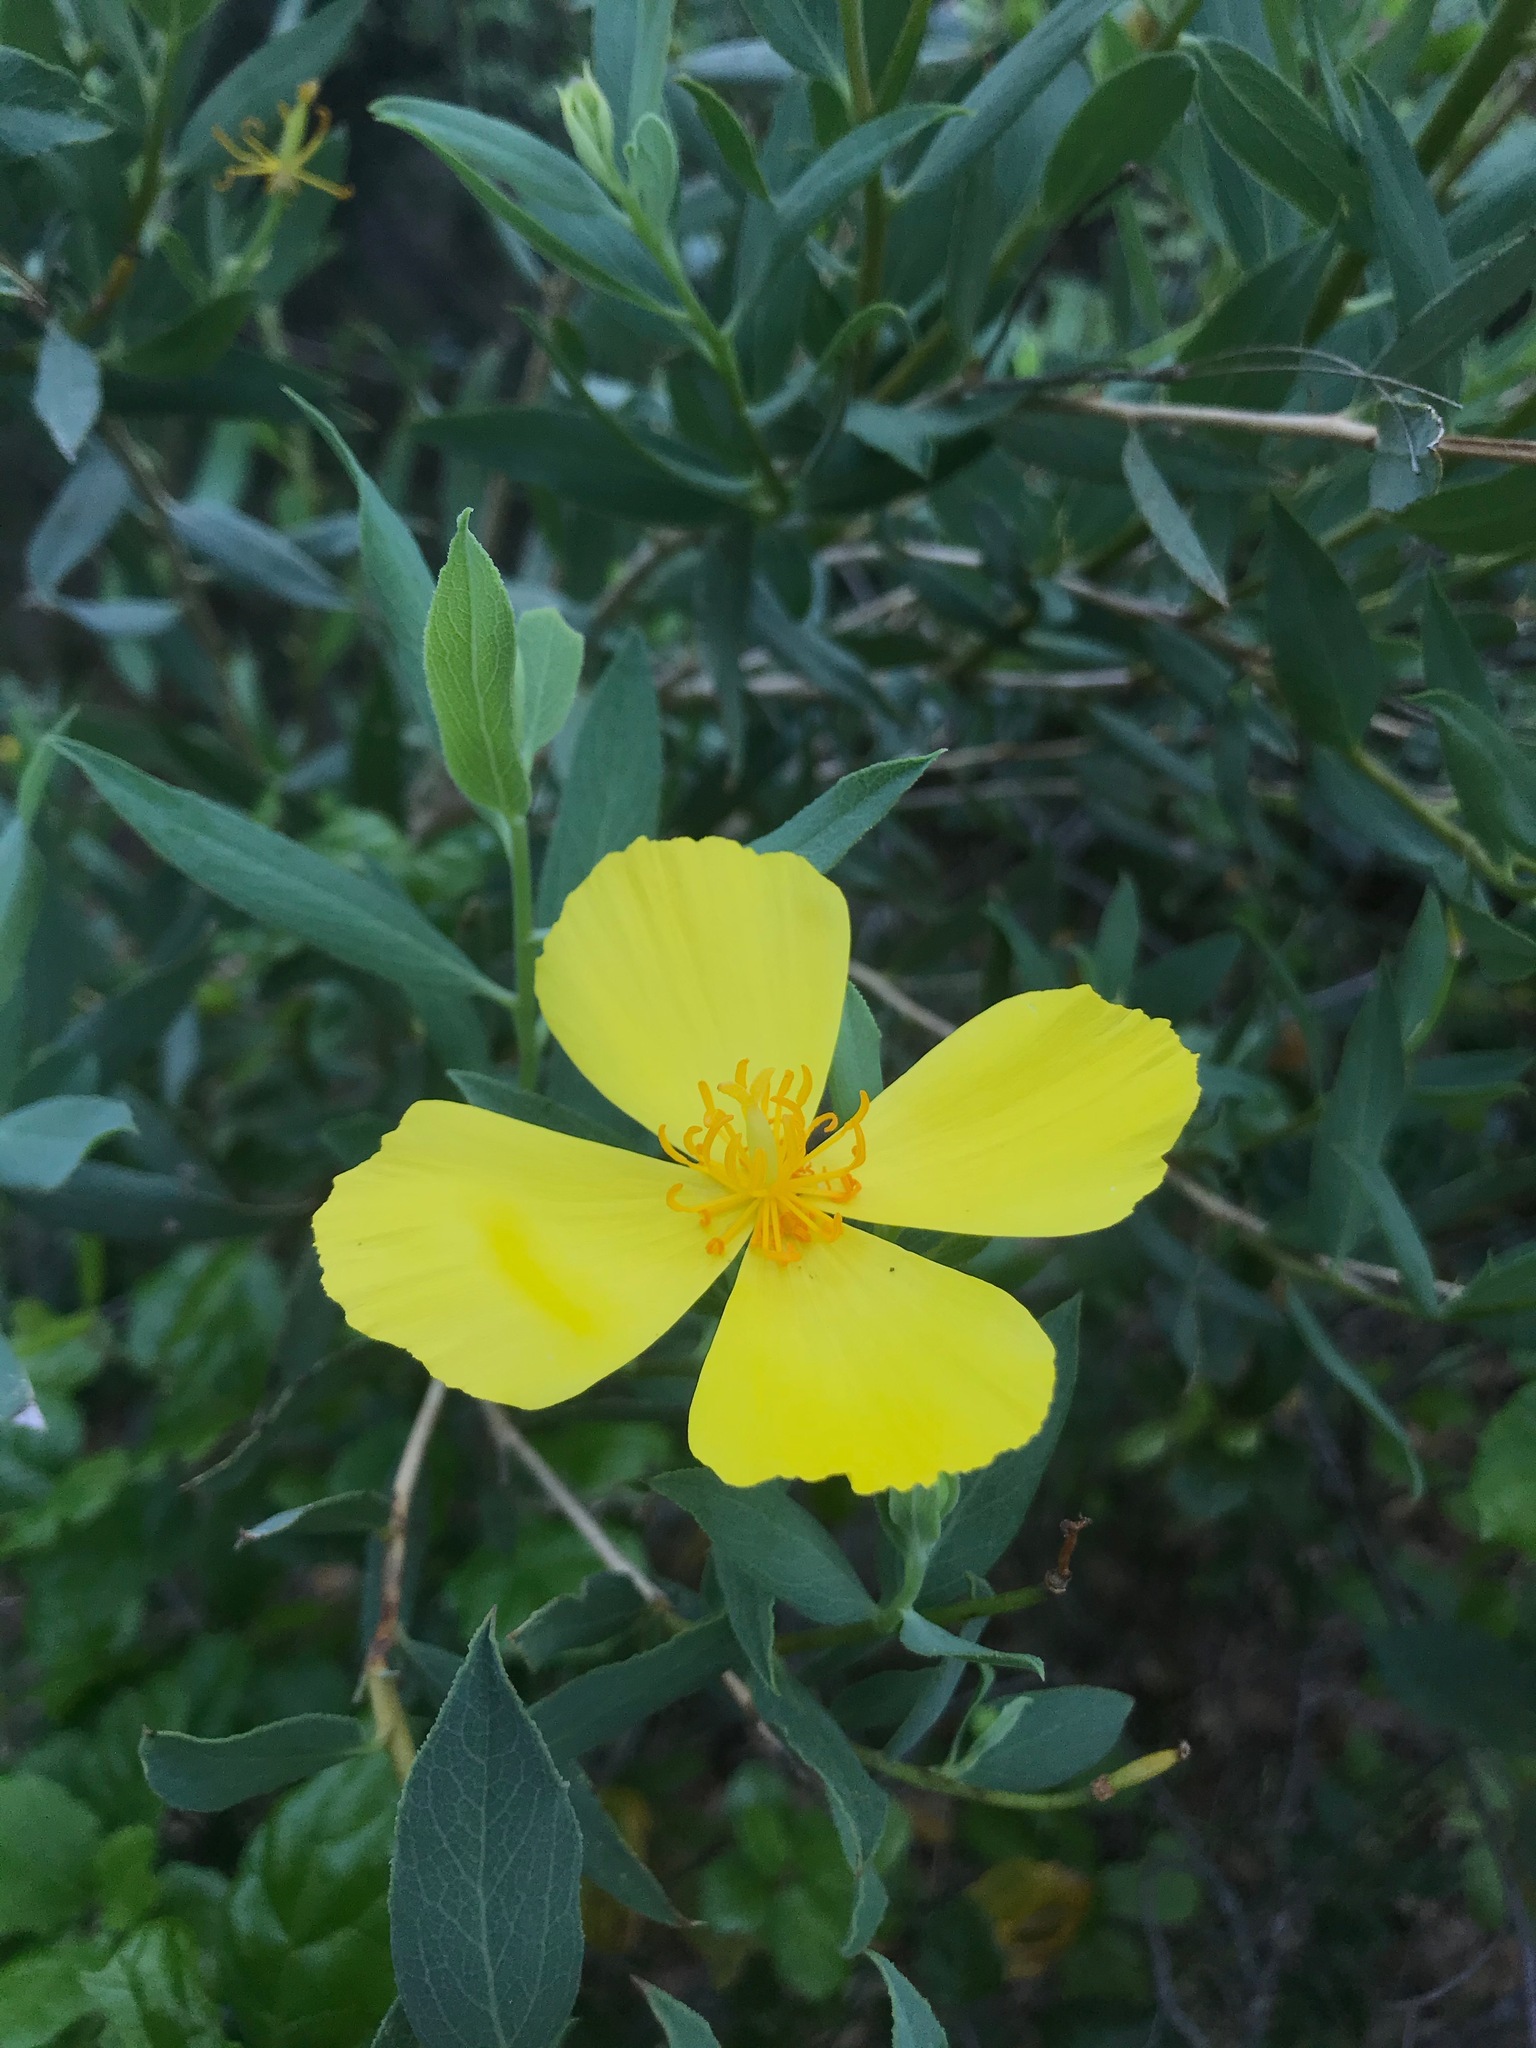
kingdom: Plantae
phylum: Tracheophyta
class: Magnoliopsida
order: Ranunculales
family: Papaveraceae
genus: Dendromecon
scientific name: Dendromecon rigida
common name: Tree poppy
